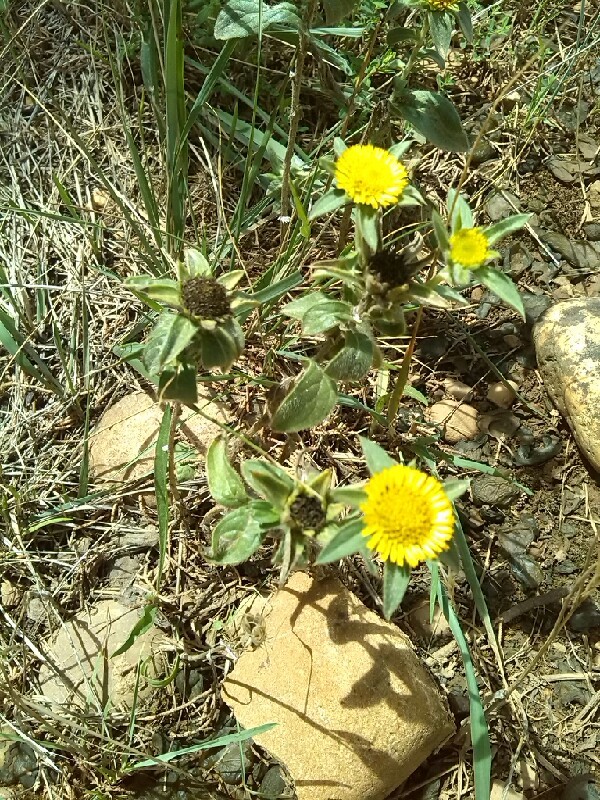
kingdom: Plantae
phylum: Tracheophyta
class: Magnoliopsida
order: Asterales
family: Asteraceae
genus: Pallenis
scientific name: Pallenis spinosa
